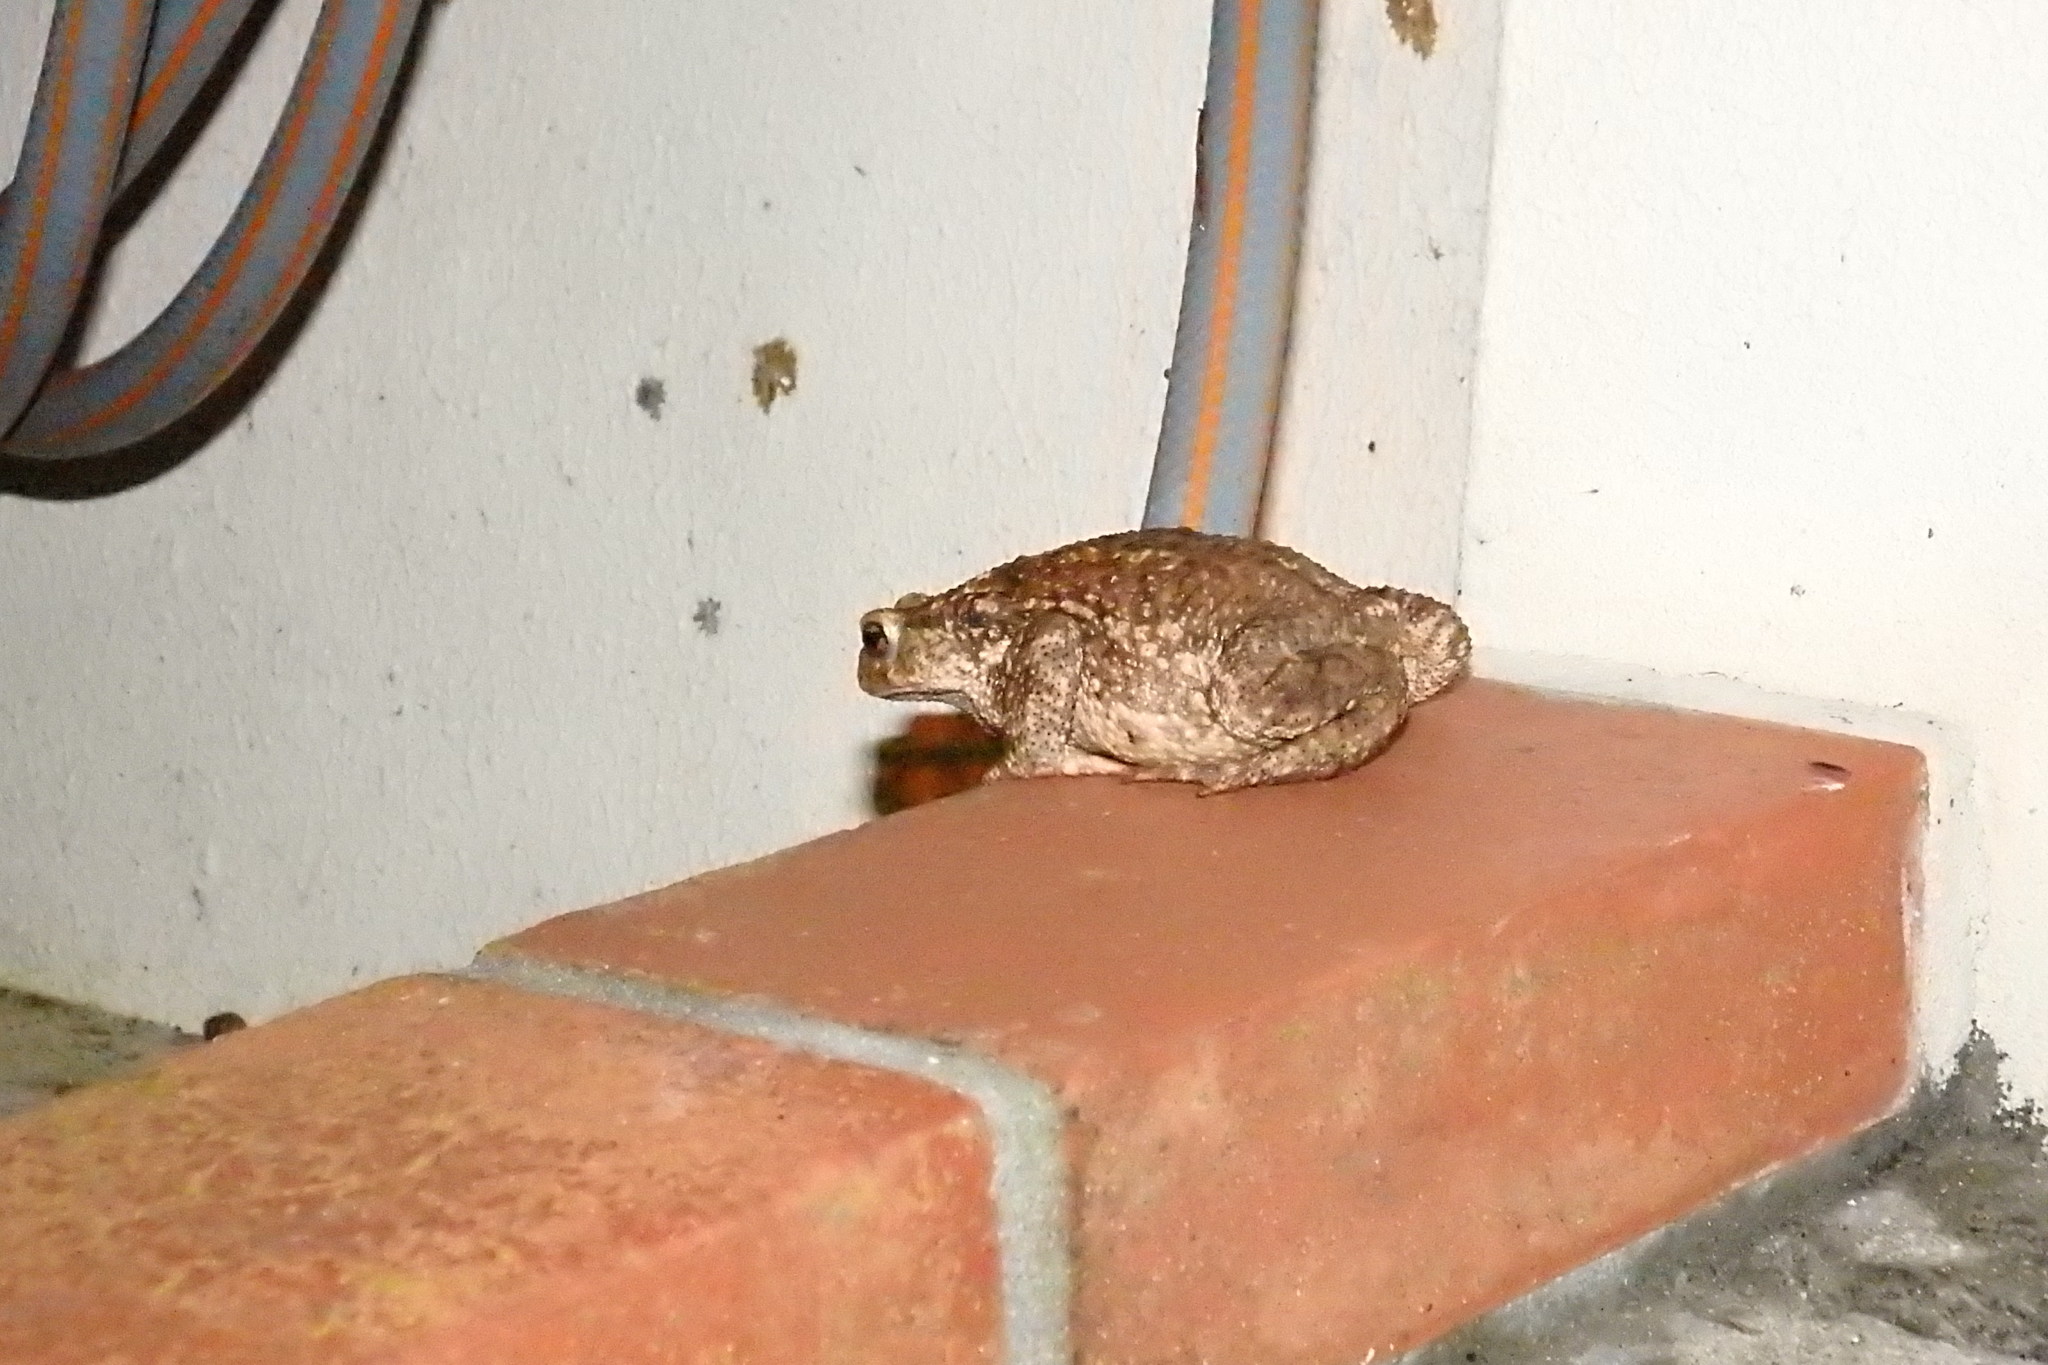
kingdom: Animalia
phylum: Chordata
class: Amphibia
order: Anura
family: Bufonidae
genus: Bufo
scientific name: Bufo spinosus
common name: Western common toad
